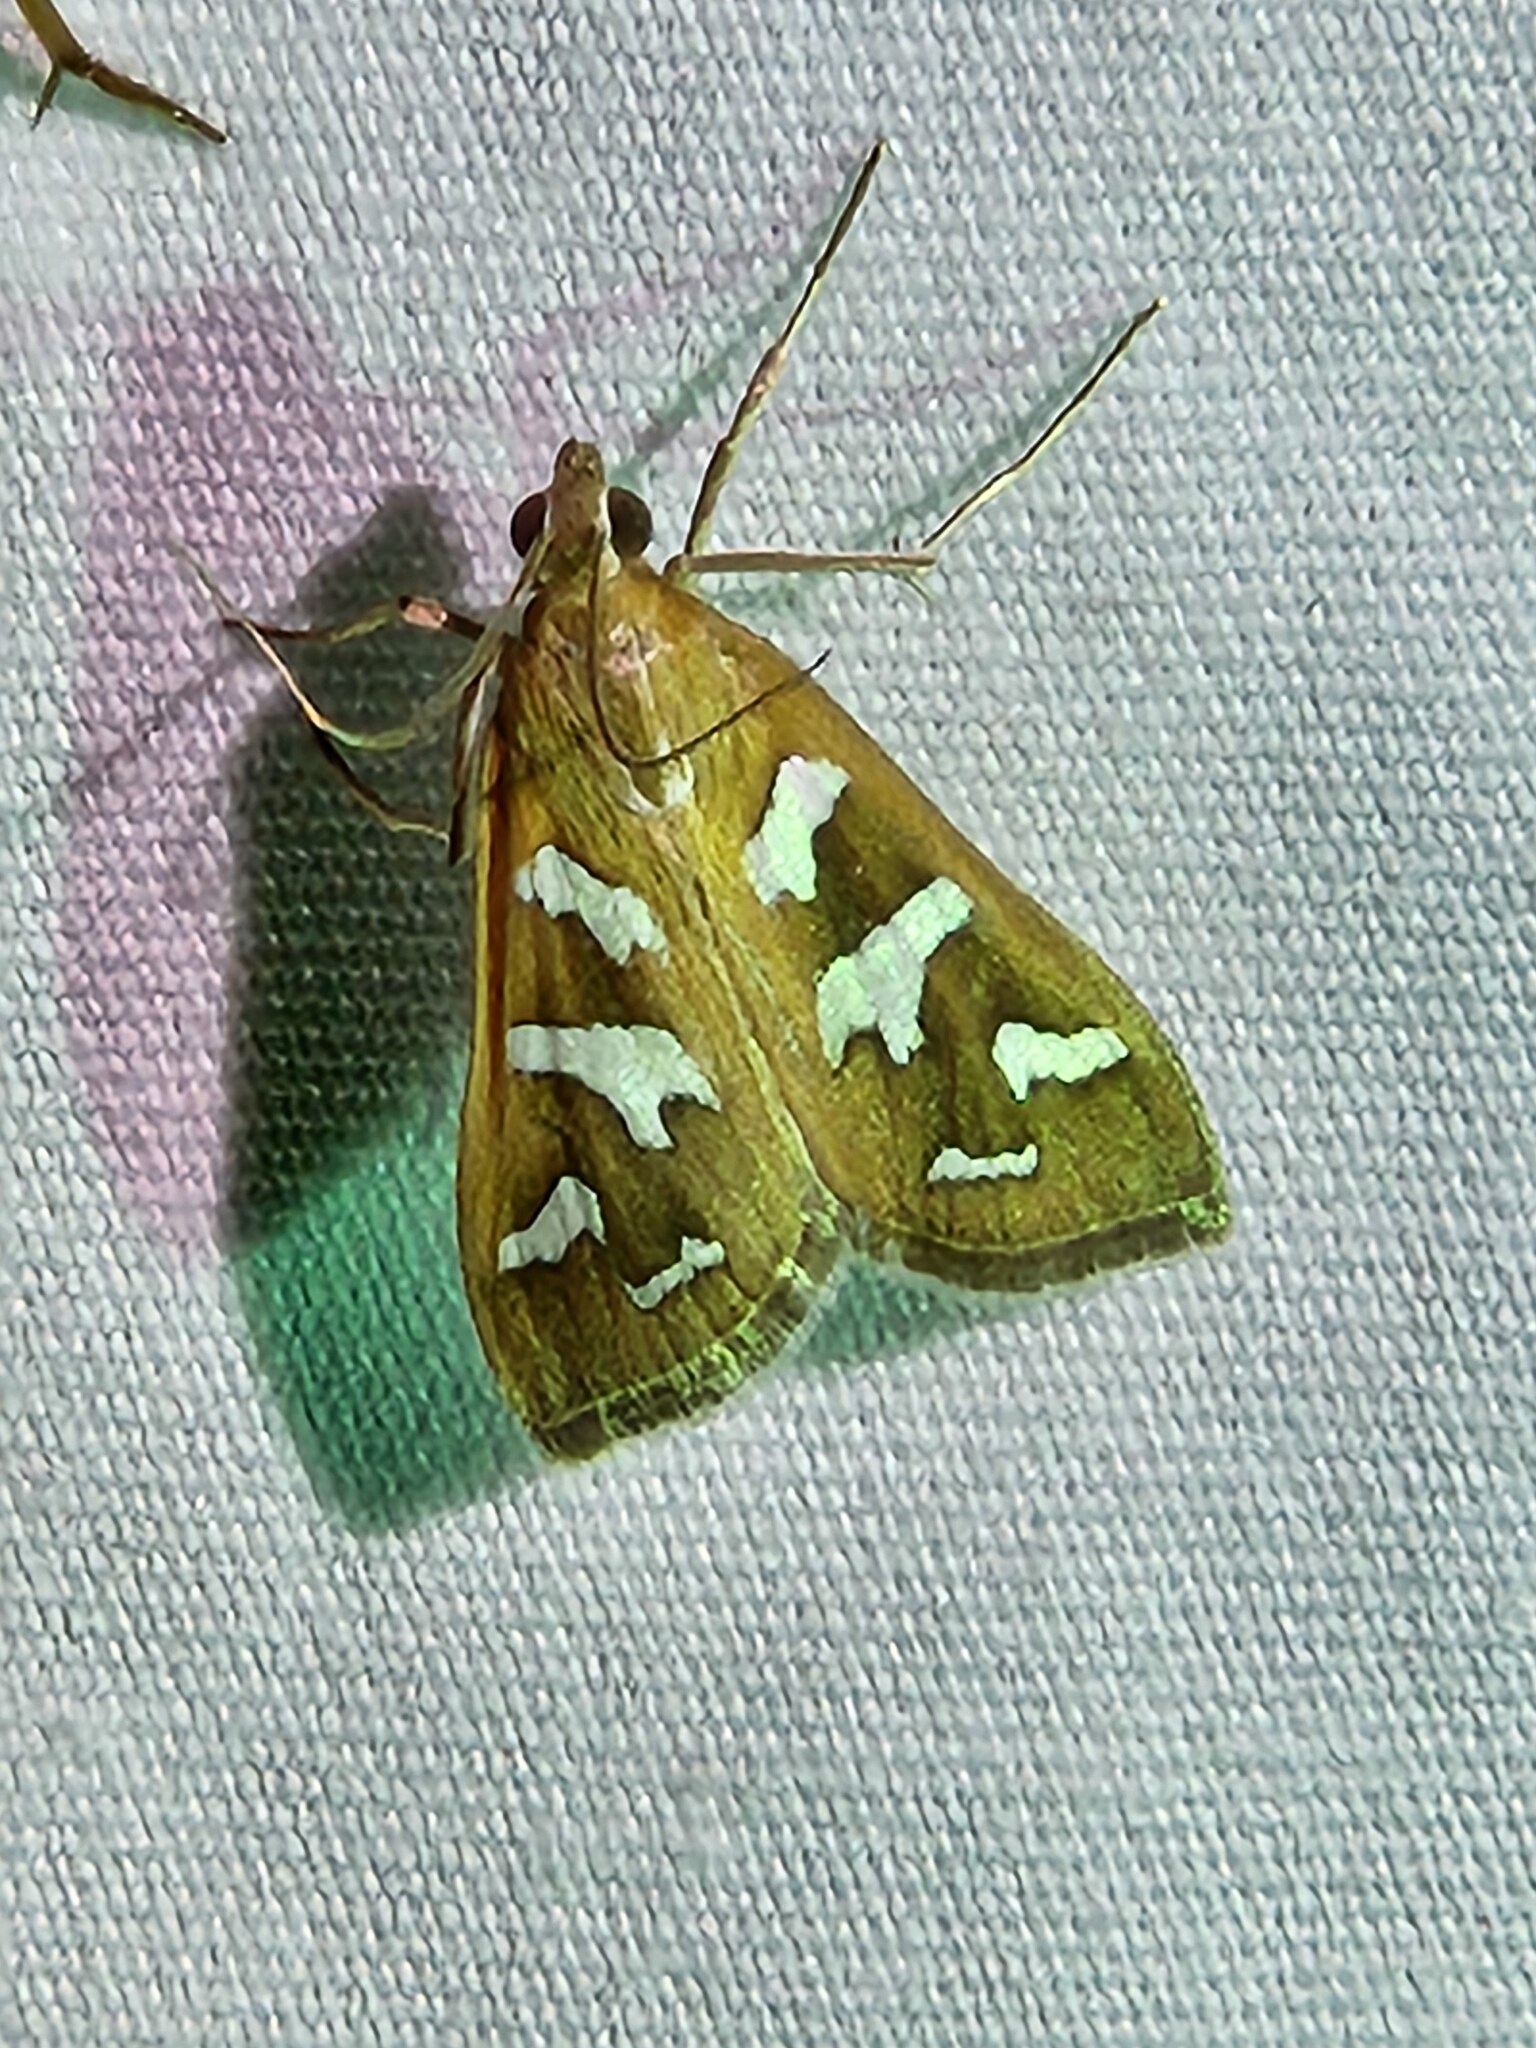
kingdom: Animalia
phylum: Arthropoda
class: Insecta
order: Lepidoptera
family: Crambidae
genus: Diastictis
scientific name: Diastictis fracturalis
